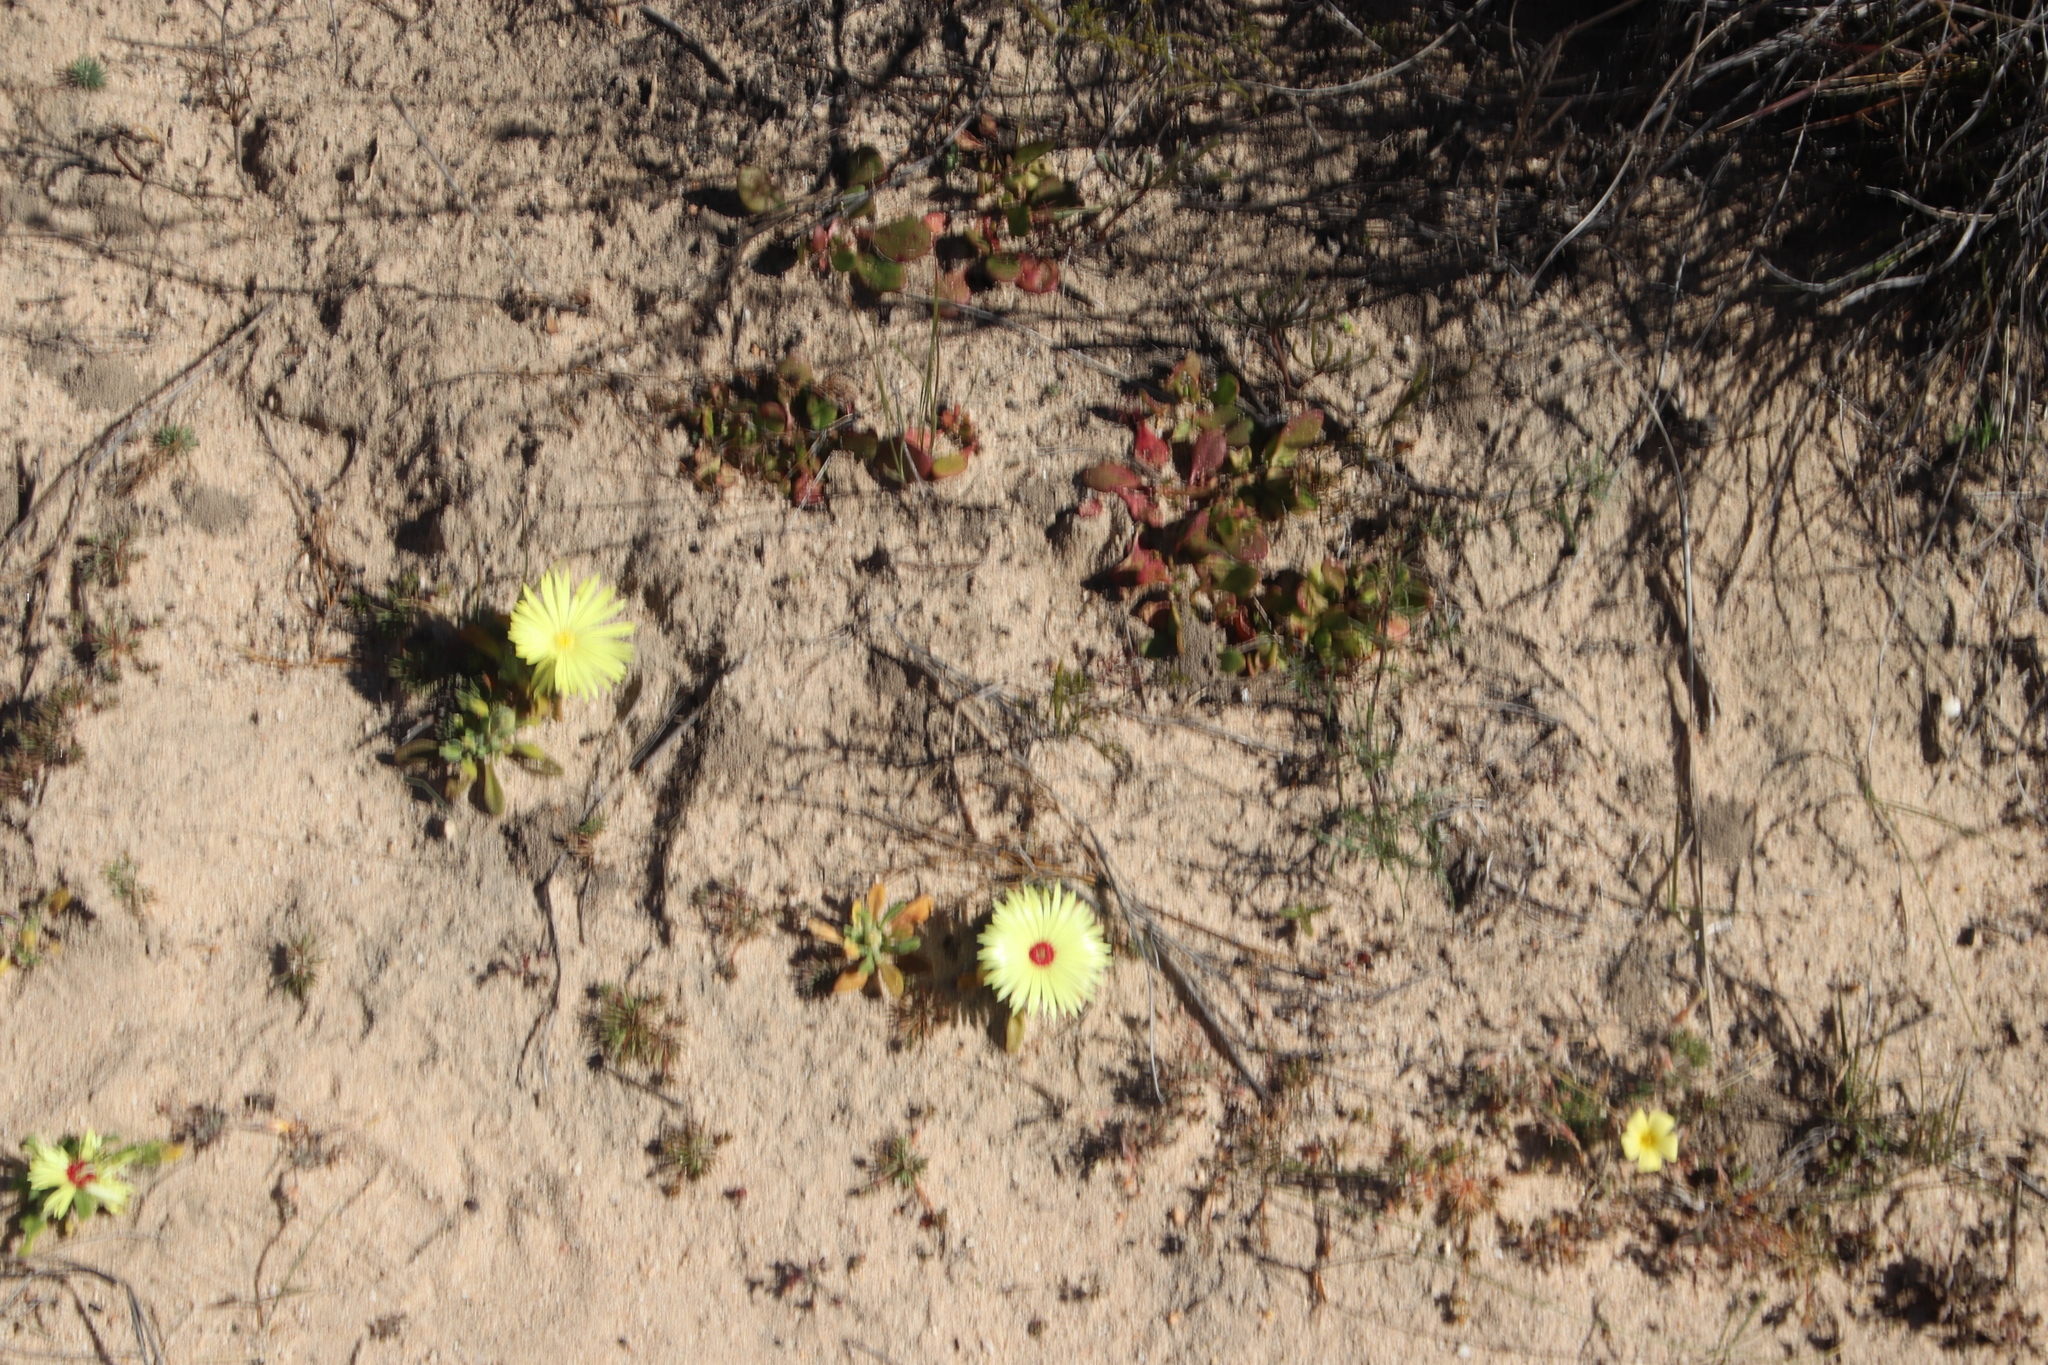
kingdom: Plantae
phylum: Tracheophyta
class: Magnoliopsida
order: Caryophyllales
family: Aizoaceae
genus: Cleretum
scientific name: Cleretum bellidiforme
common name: Livingstone daisy
